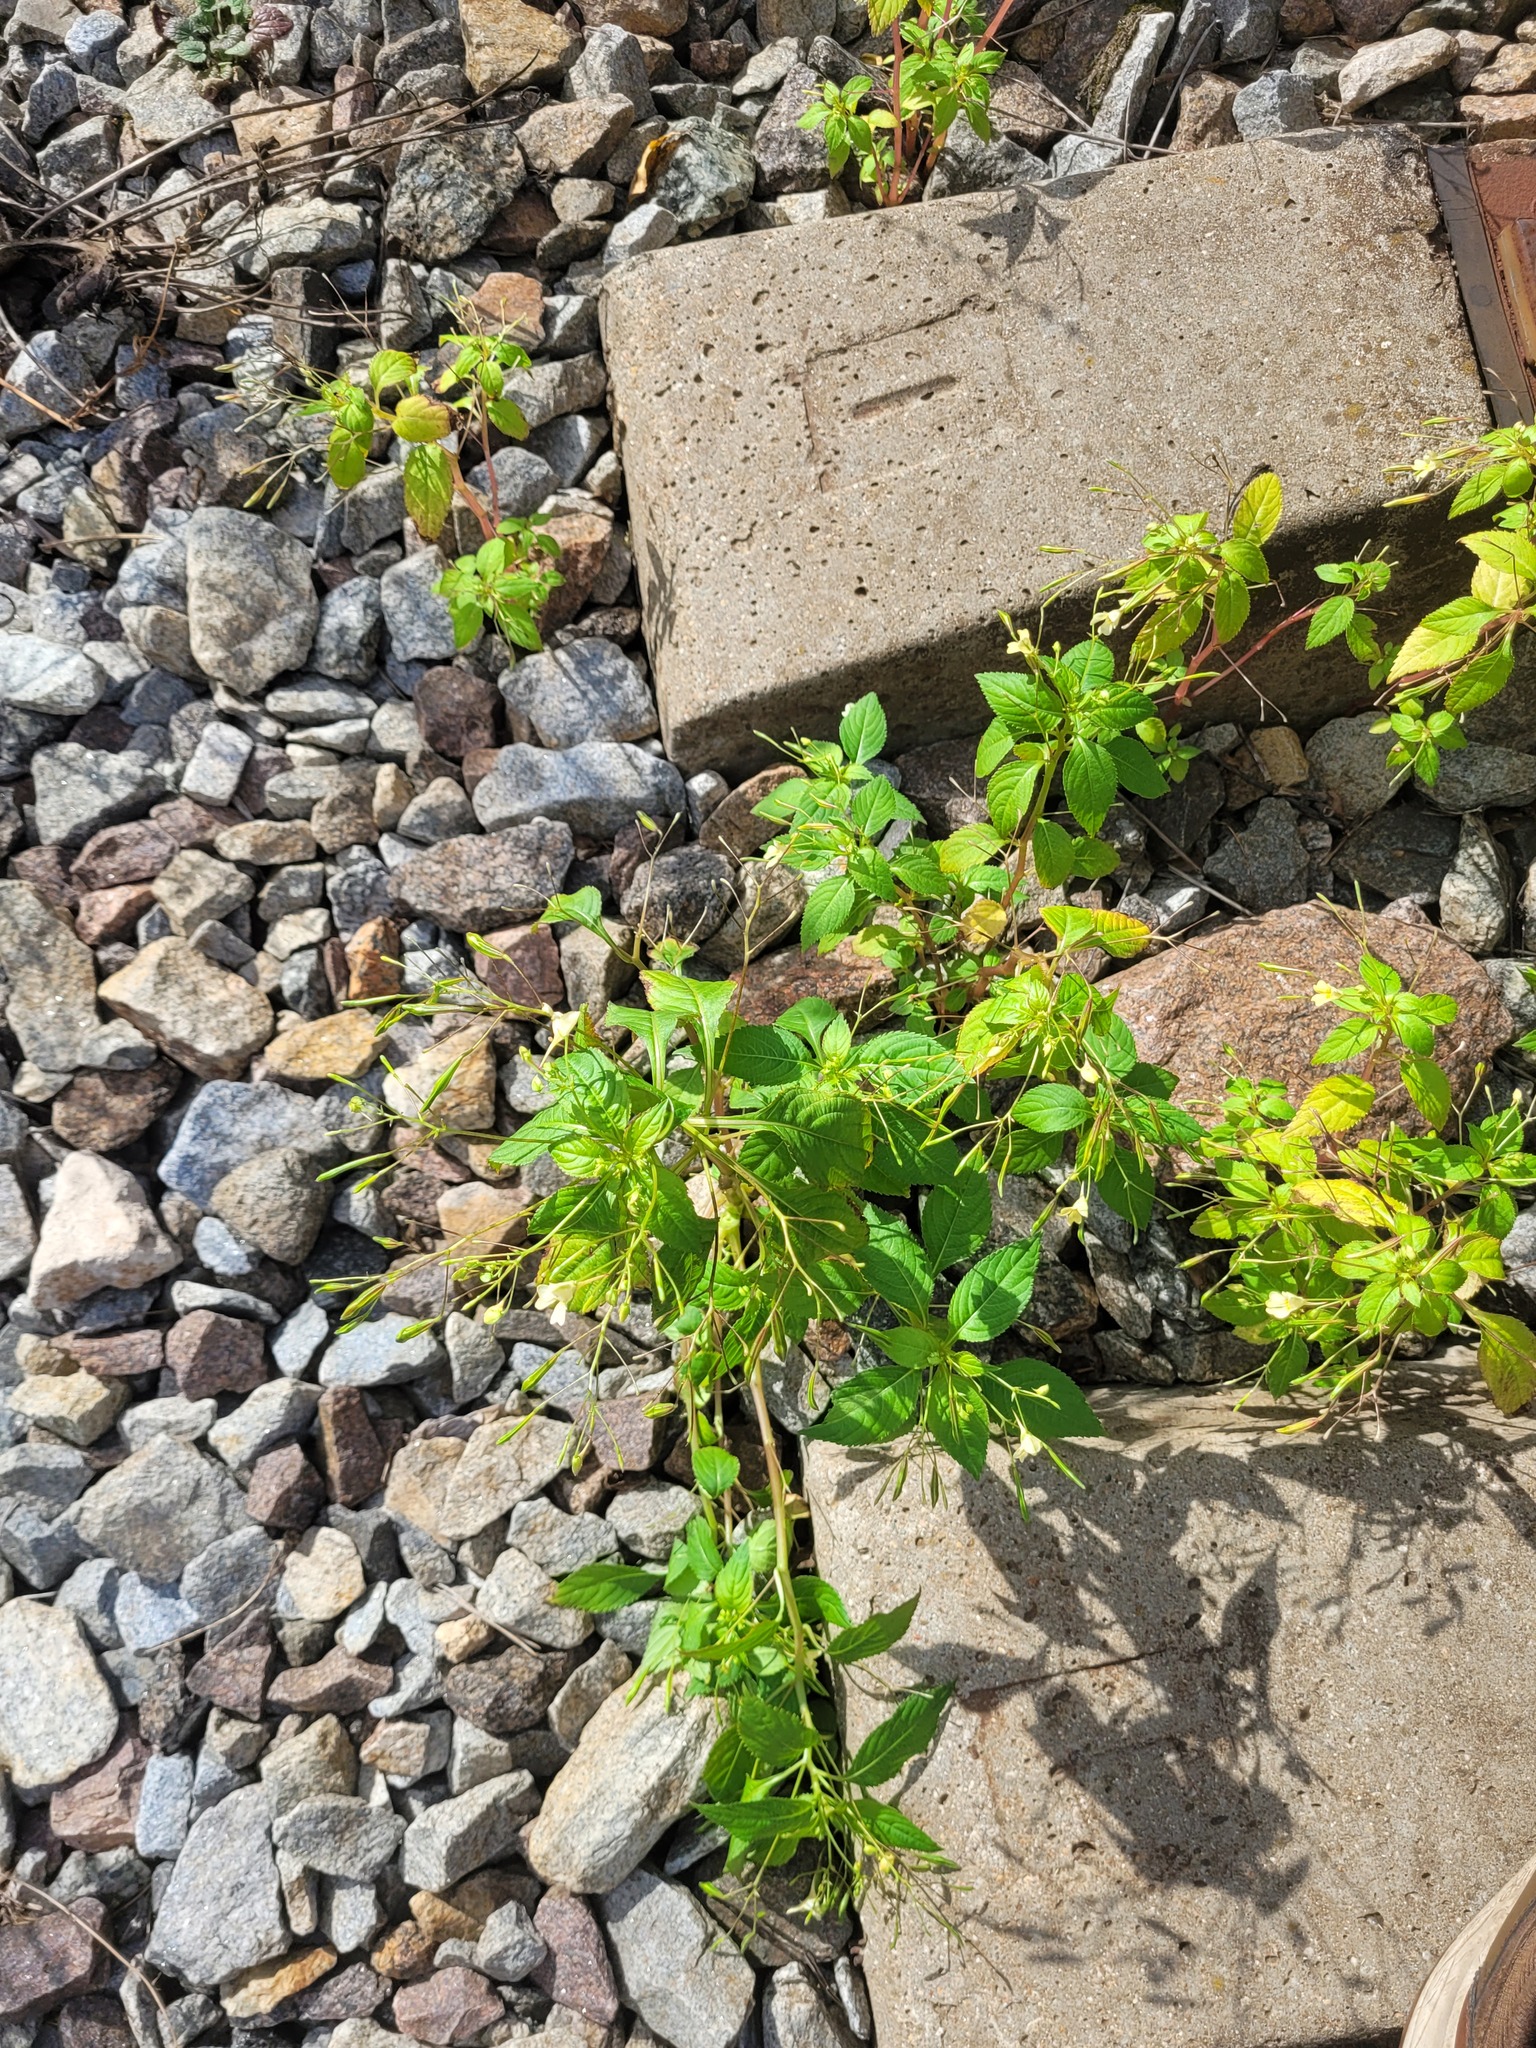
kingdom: Plantae
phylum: Tracheophyta
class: Magnoliopsida
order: Ericales
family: Balsaminaceae
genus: Impatiens
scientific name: Impatiens parviflora
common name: Small balsam
